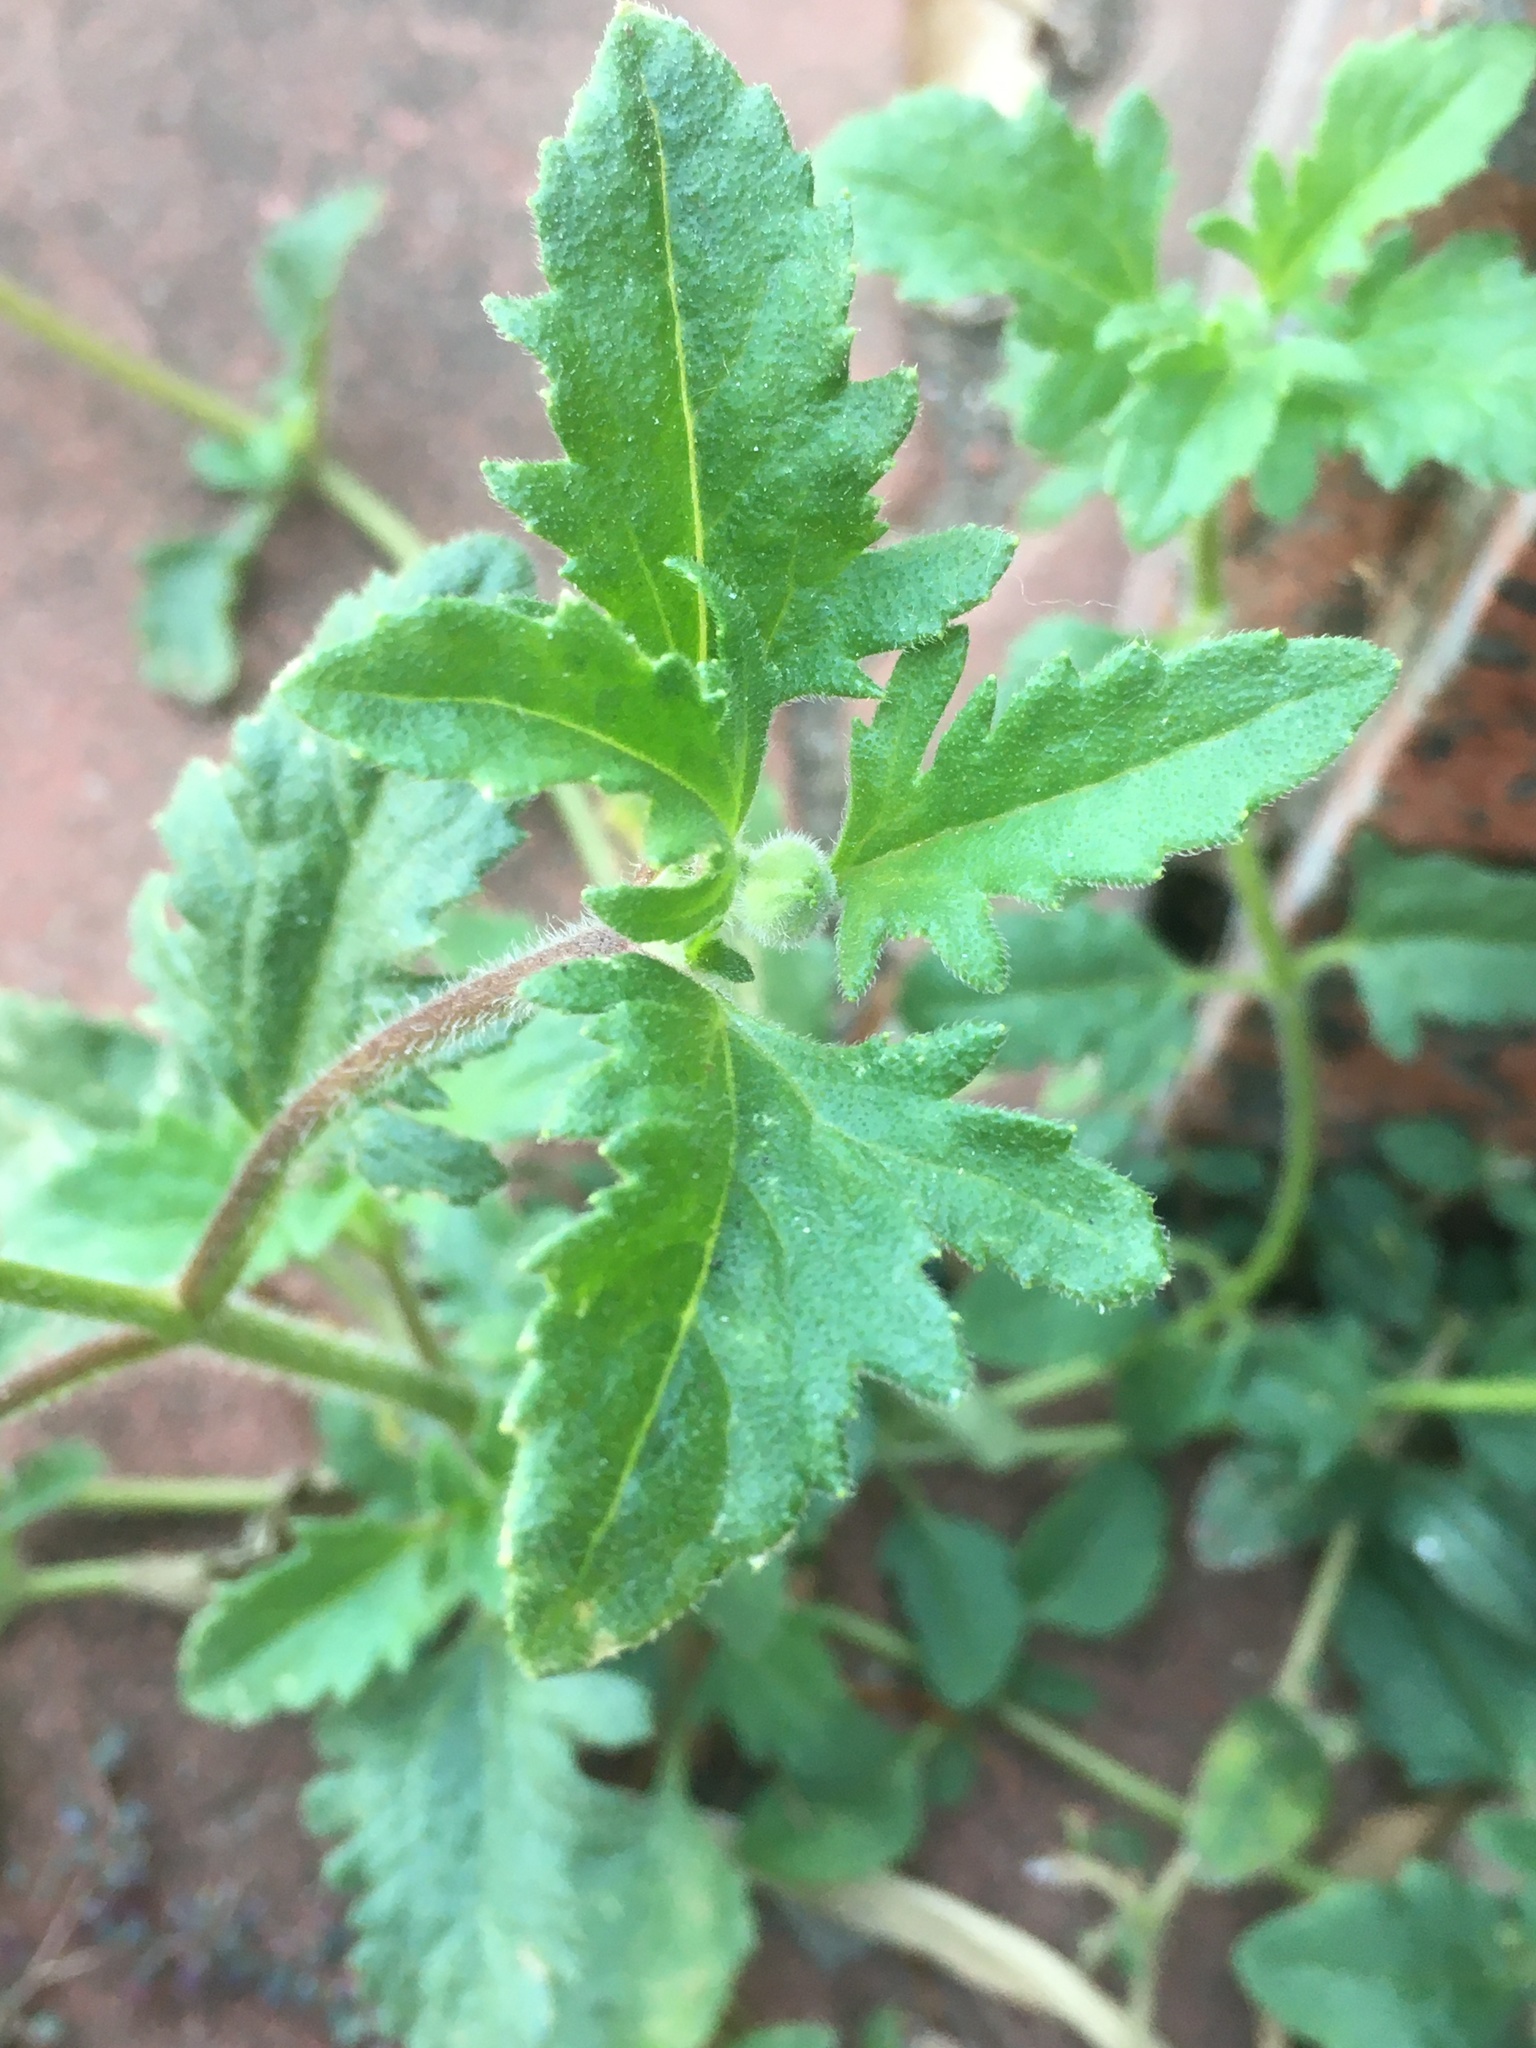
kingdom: Plantae
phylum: Tracheophyta
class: Magnoliopsida
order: Asterales
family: Asteraceae
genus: Tridax
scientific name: Tridax procumbens
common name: Coatbuttons
